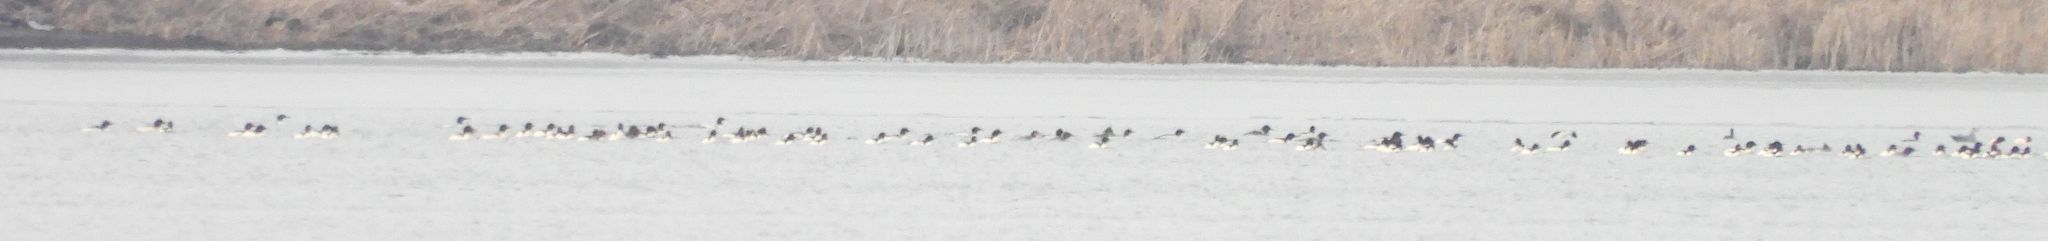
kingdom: Animalia
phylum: Chordata
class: Aves
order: Anseriformes
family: Anatidae
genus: Mergus
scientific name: Mergus merganser
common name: Common merganser
